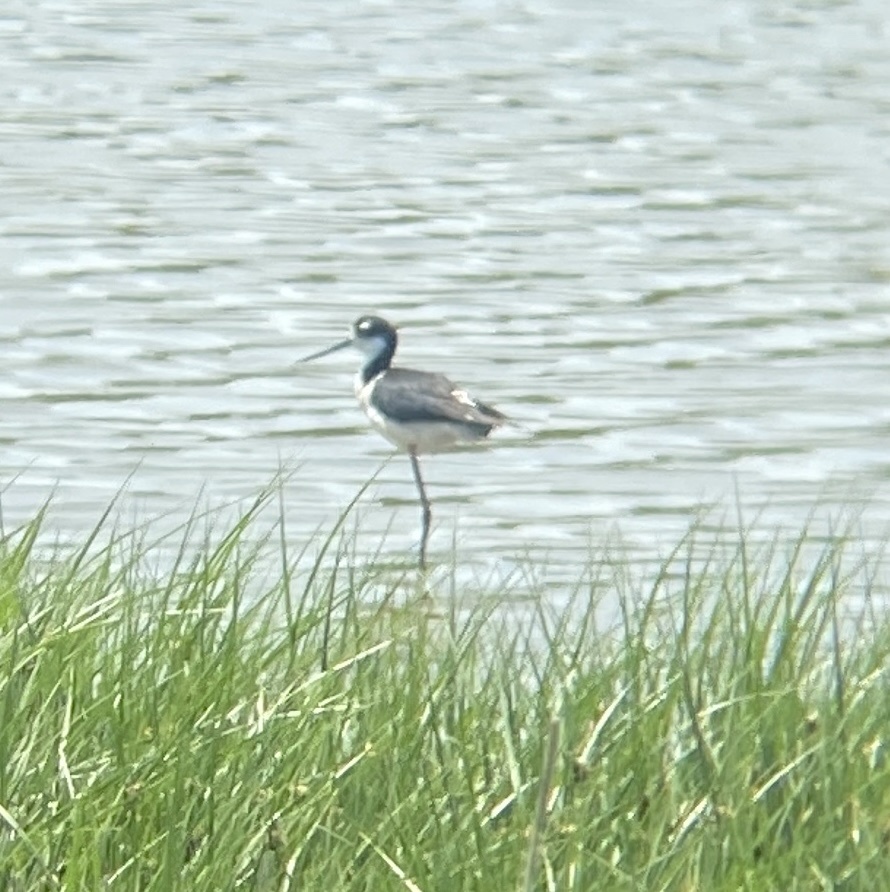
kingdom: Animalia
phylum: Chordata
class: Aves
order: Charadriiformes
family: Recurvirostridae
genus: Himantopus
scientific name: Himantopus mexicanus
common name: Black-necked stilt
